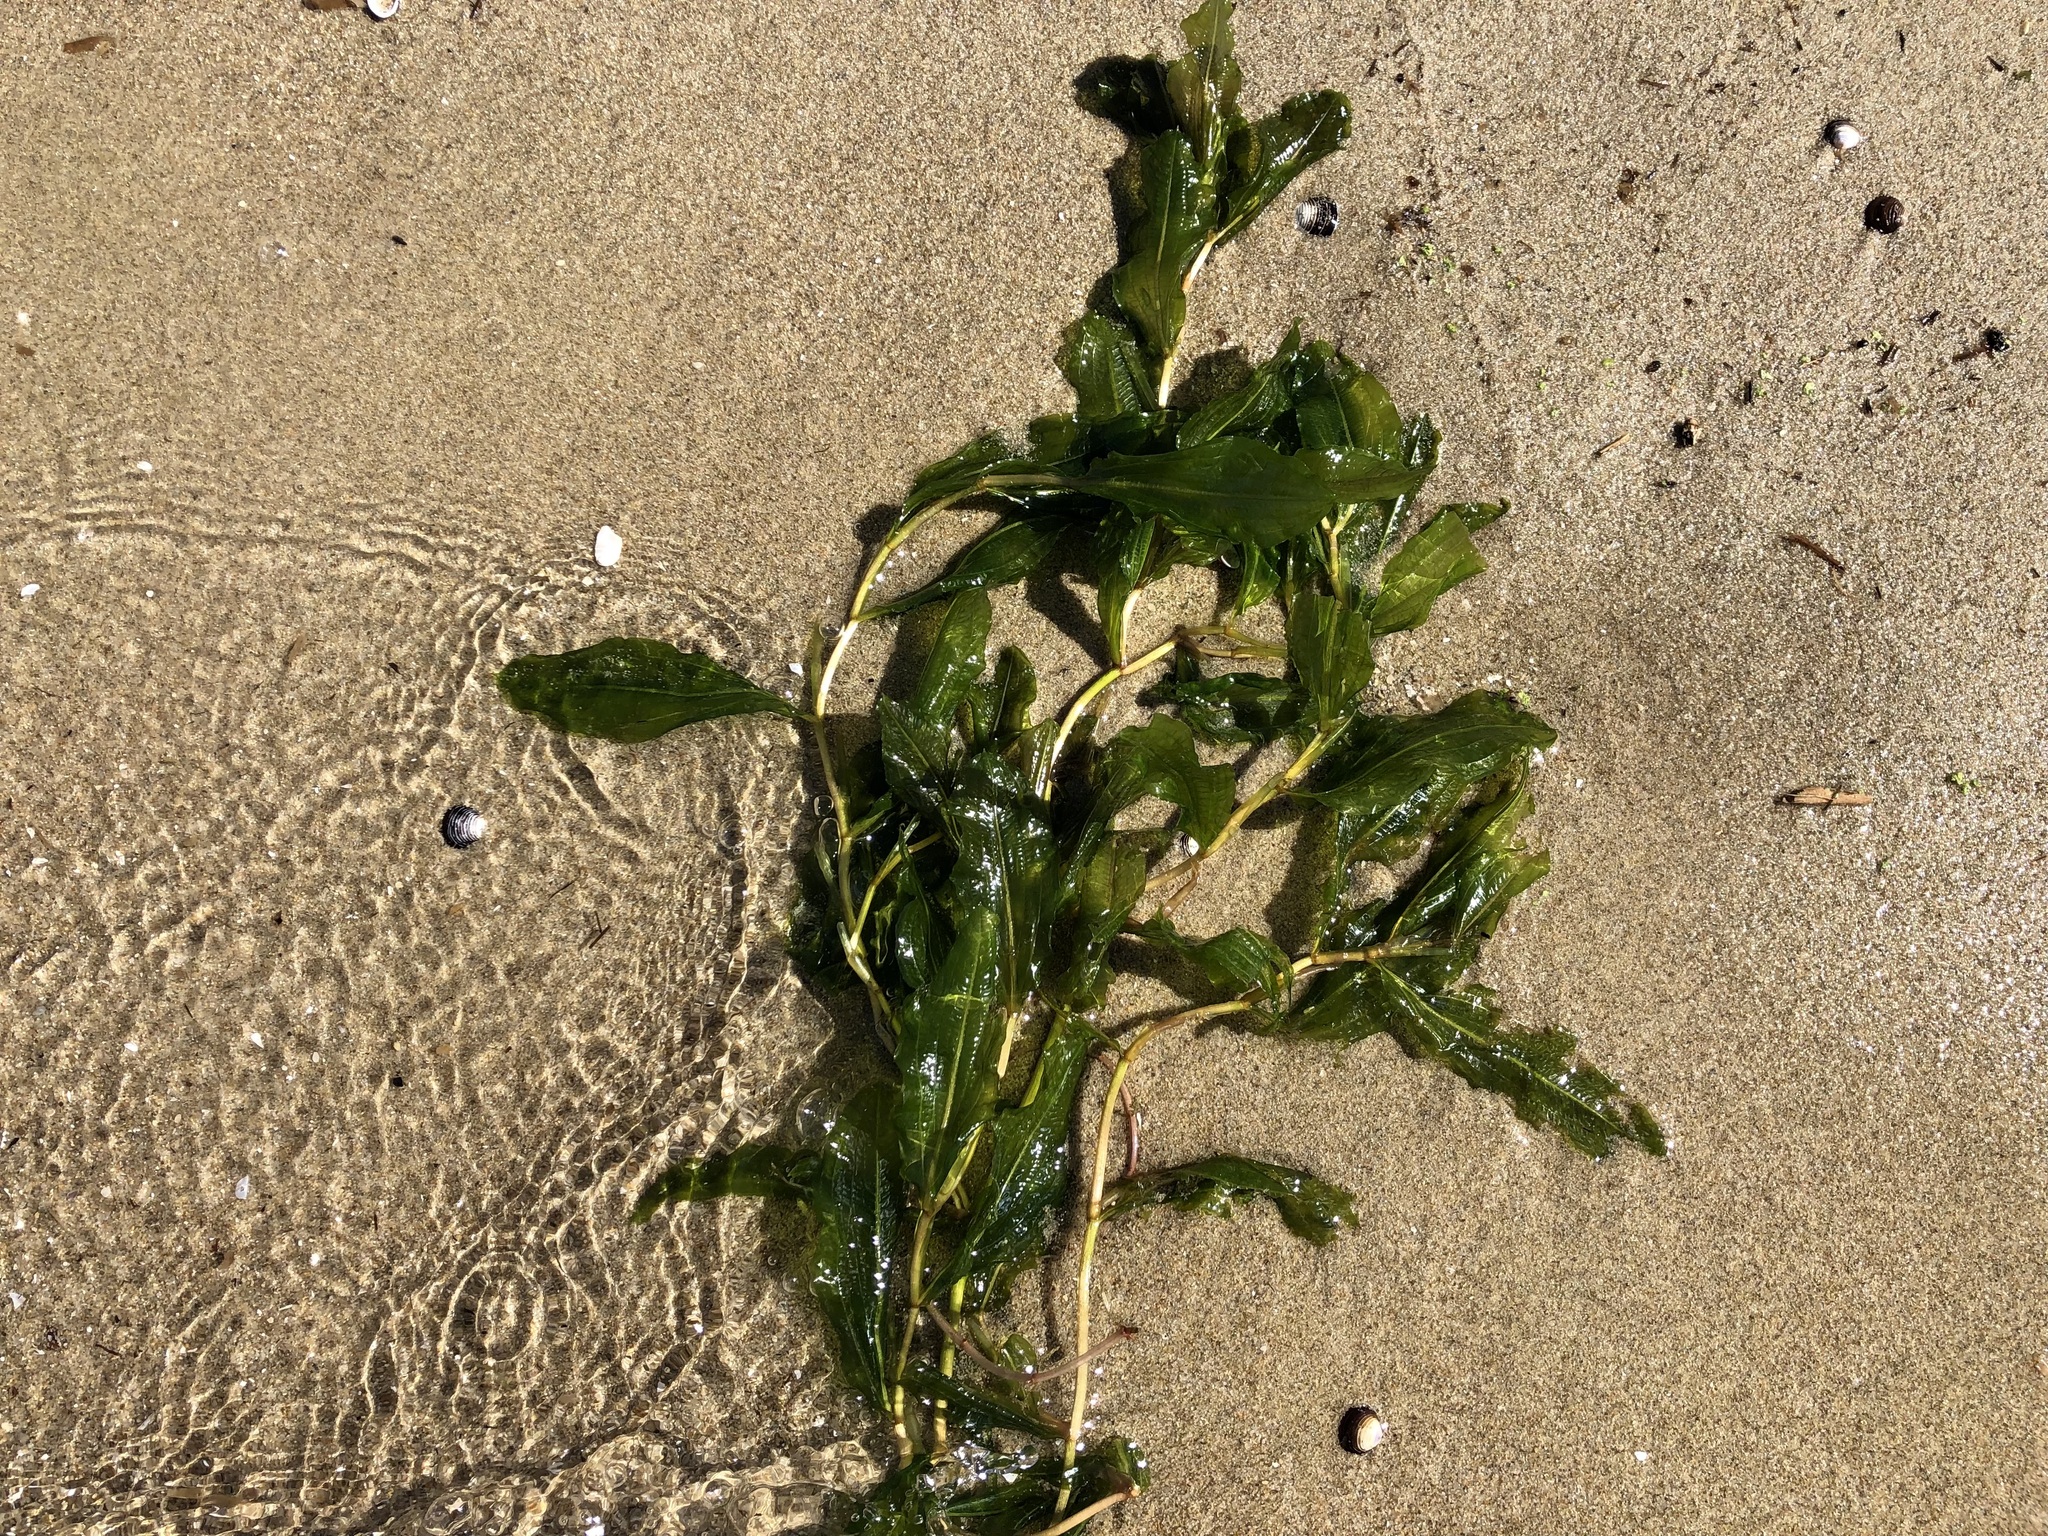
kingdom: Plantae
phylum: Tracheophyta
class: Liliopsida
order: Alismatales
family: Potamogetonaceae
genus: Potamogeton
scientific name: Potamogeton lucens
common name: Shining pondweed
